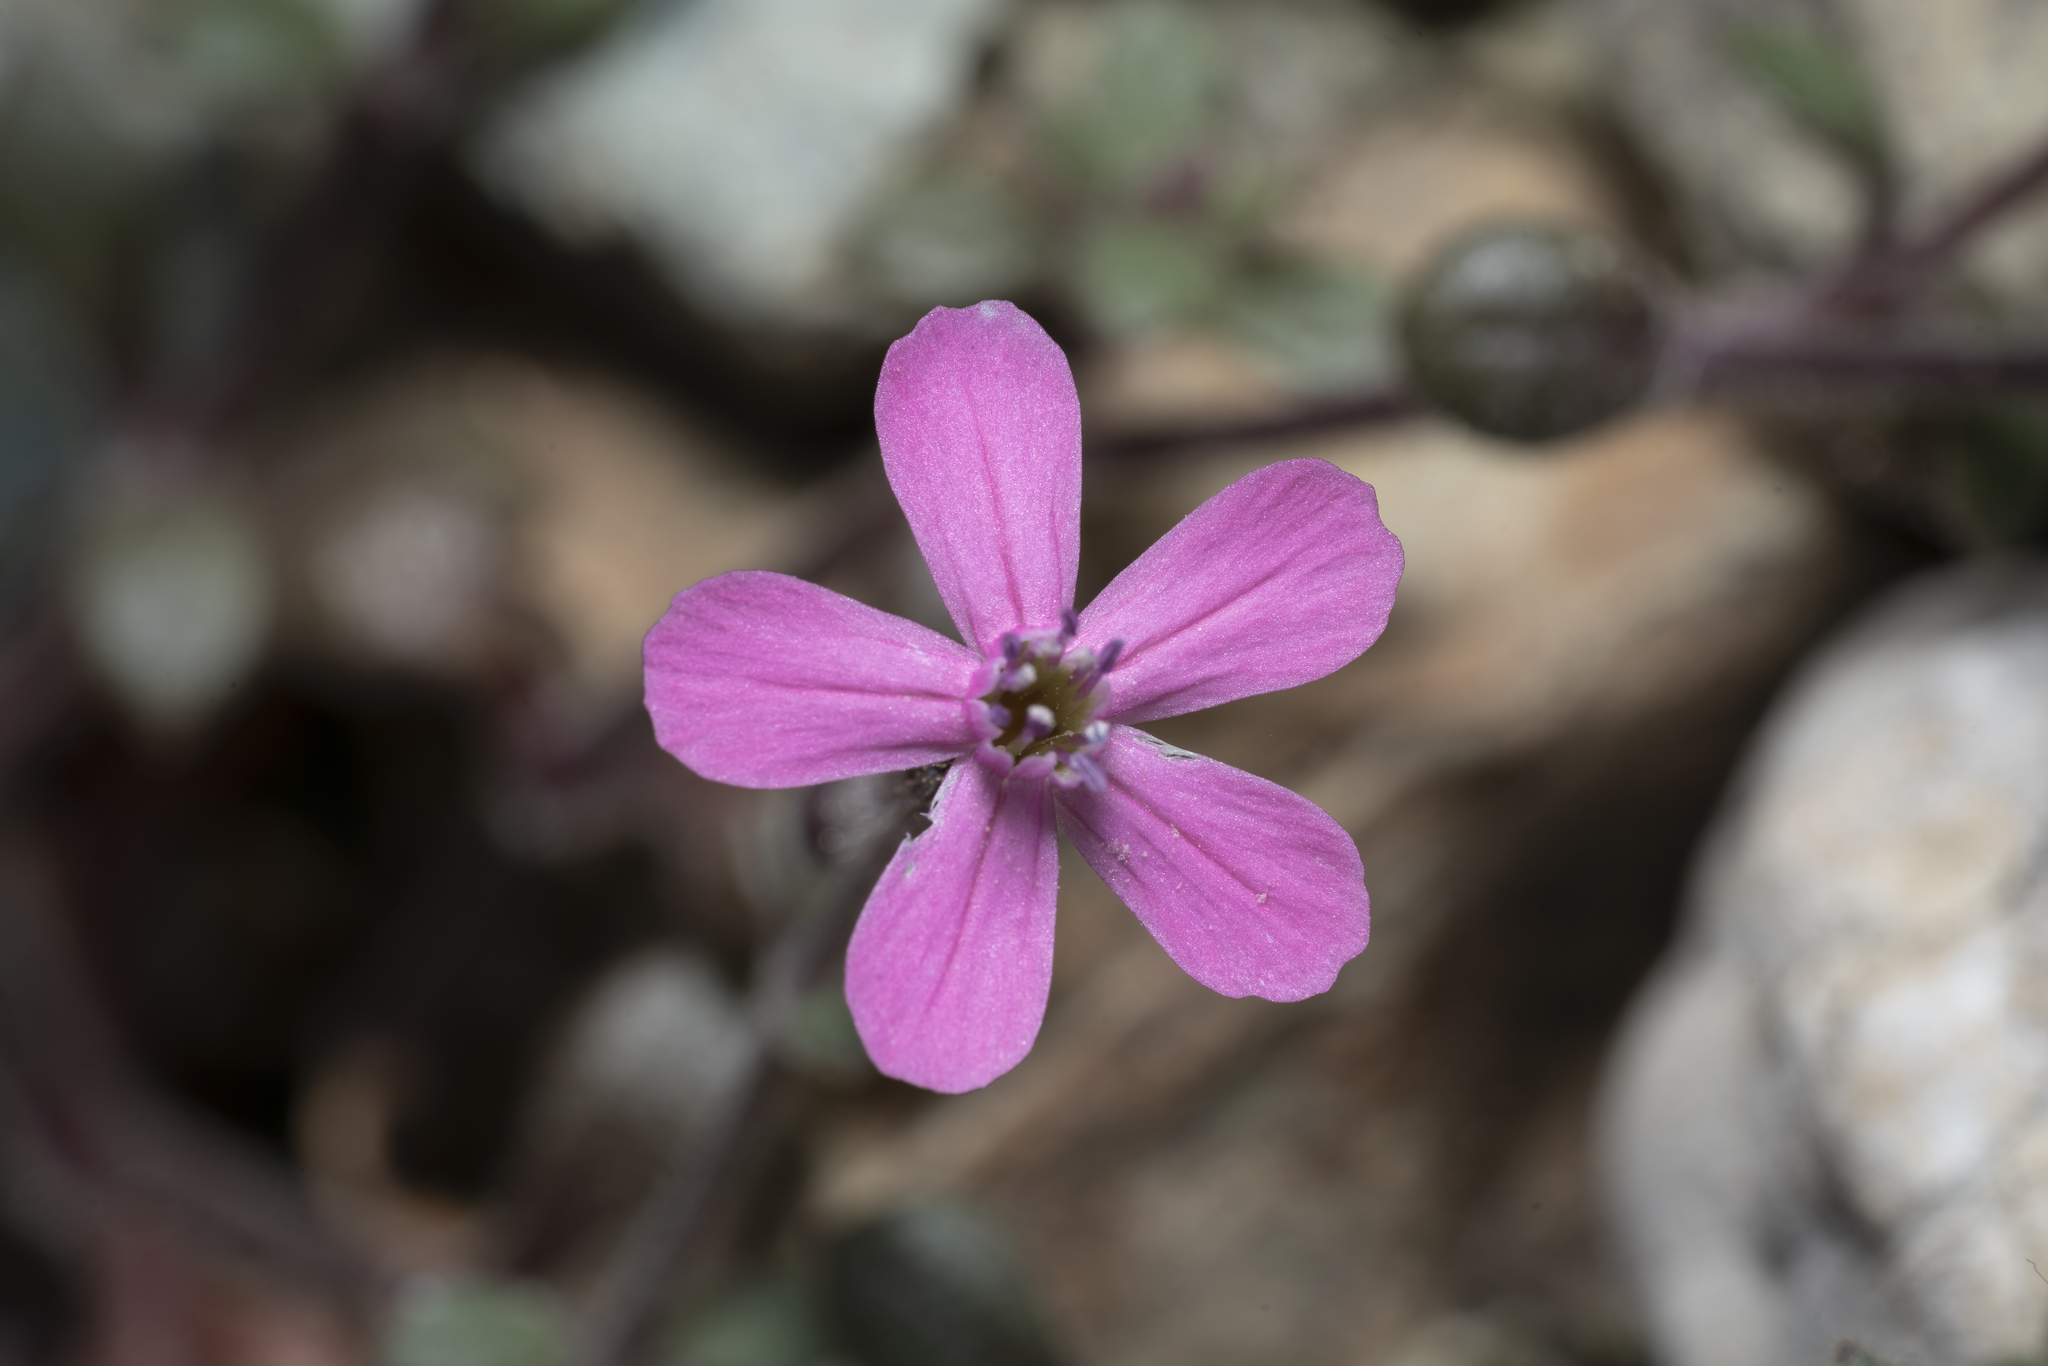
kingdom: Plantae
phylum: Tracheophyta
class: Magnoliopsida
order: Caryophyllales
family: Caryophyllaceae
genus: Silene
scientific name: Silene salamandra
